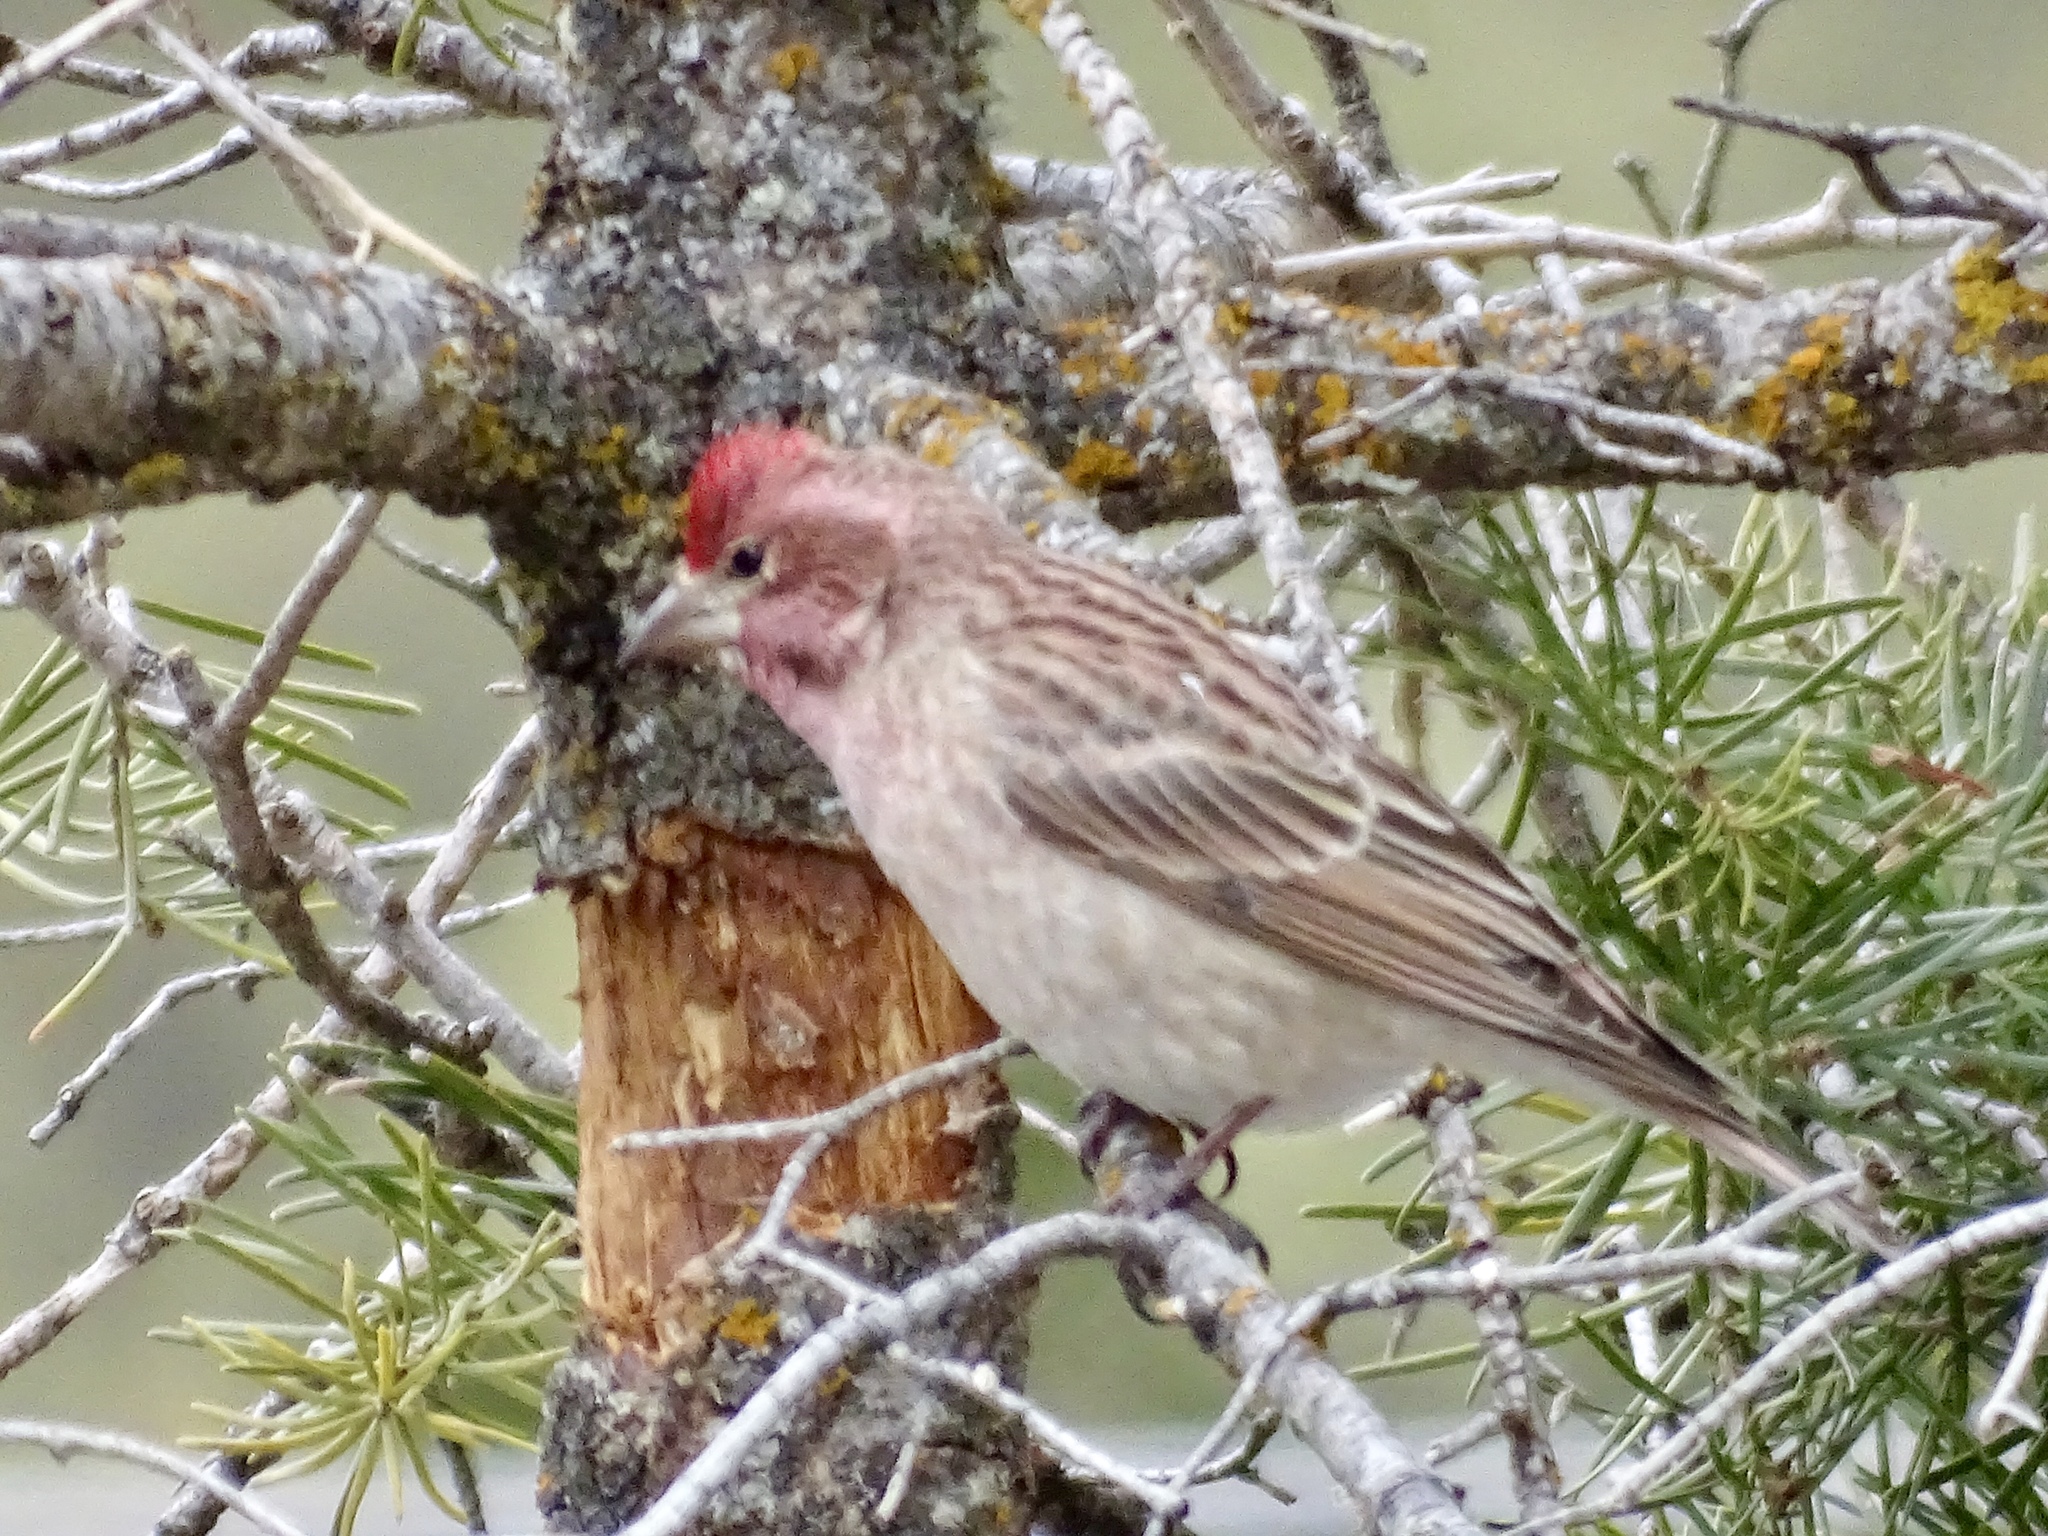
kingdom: Animalia
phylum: Chordata
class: Aves
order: Passeriformes
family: Fringillidae
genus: Haemorhous
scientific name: Haemorhous cassinii
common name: Cassin's finch
